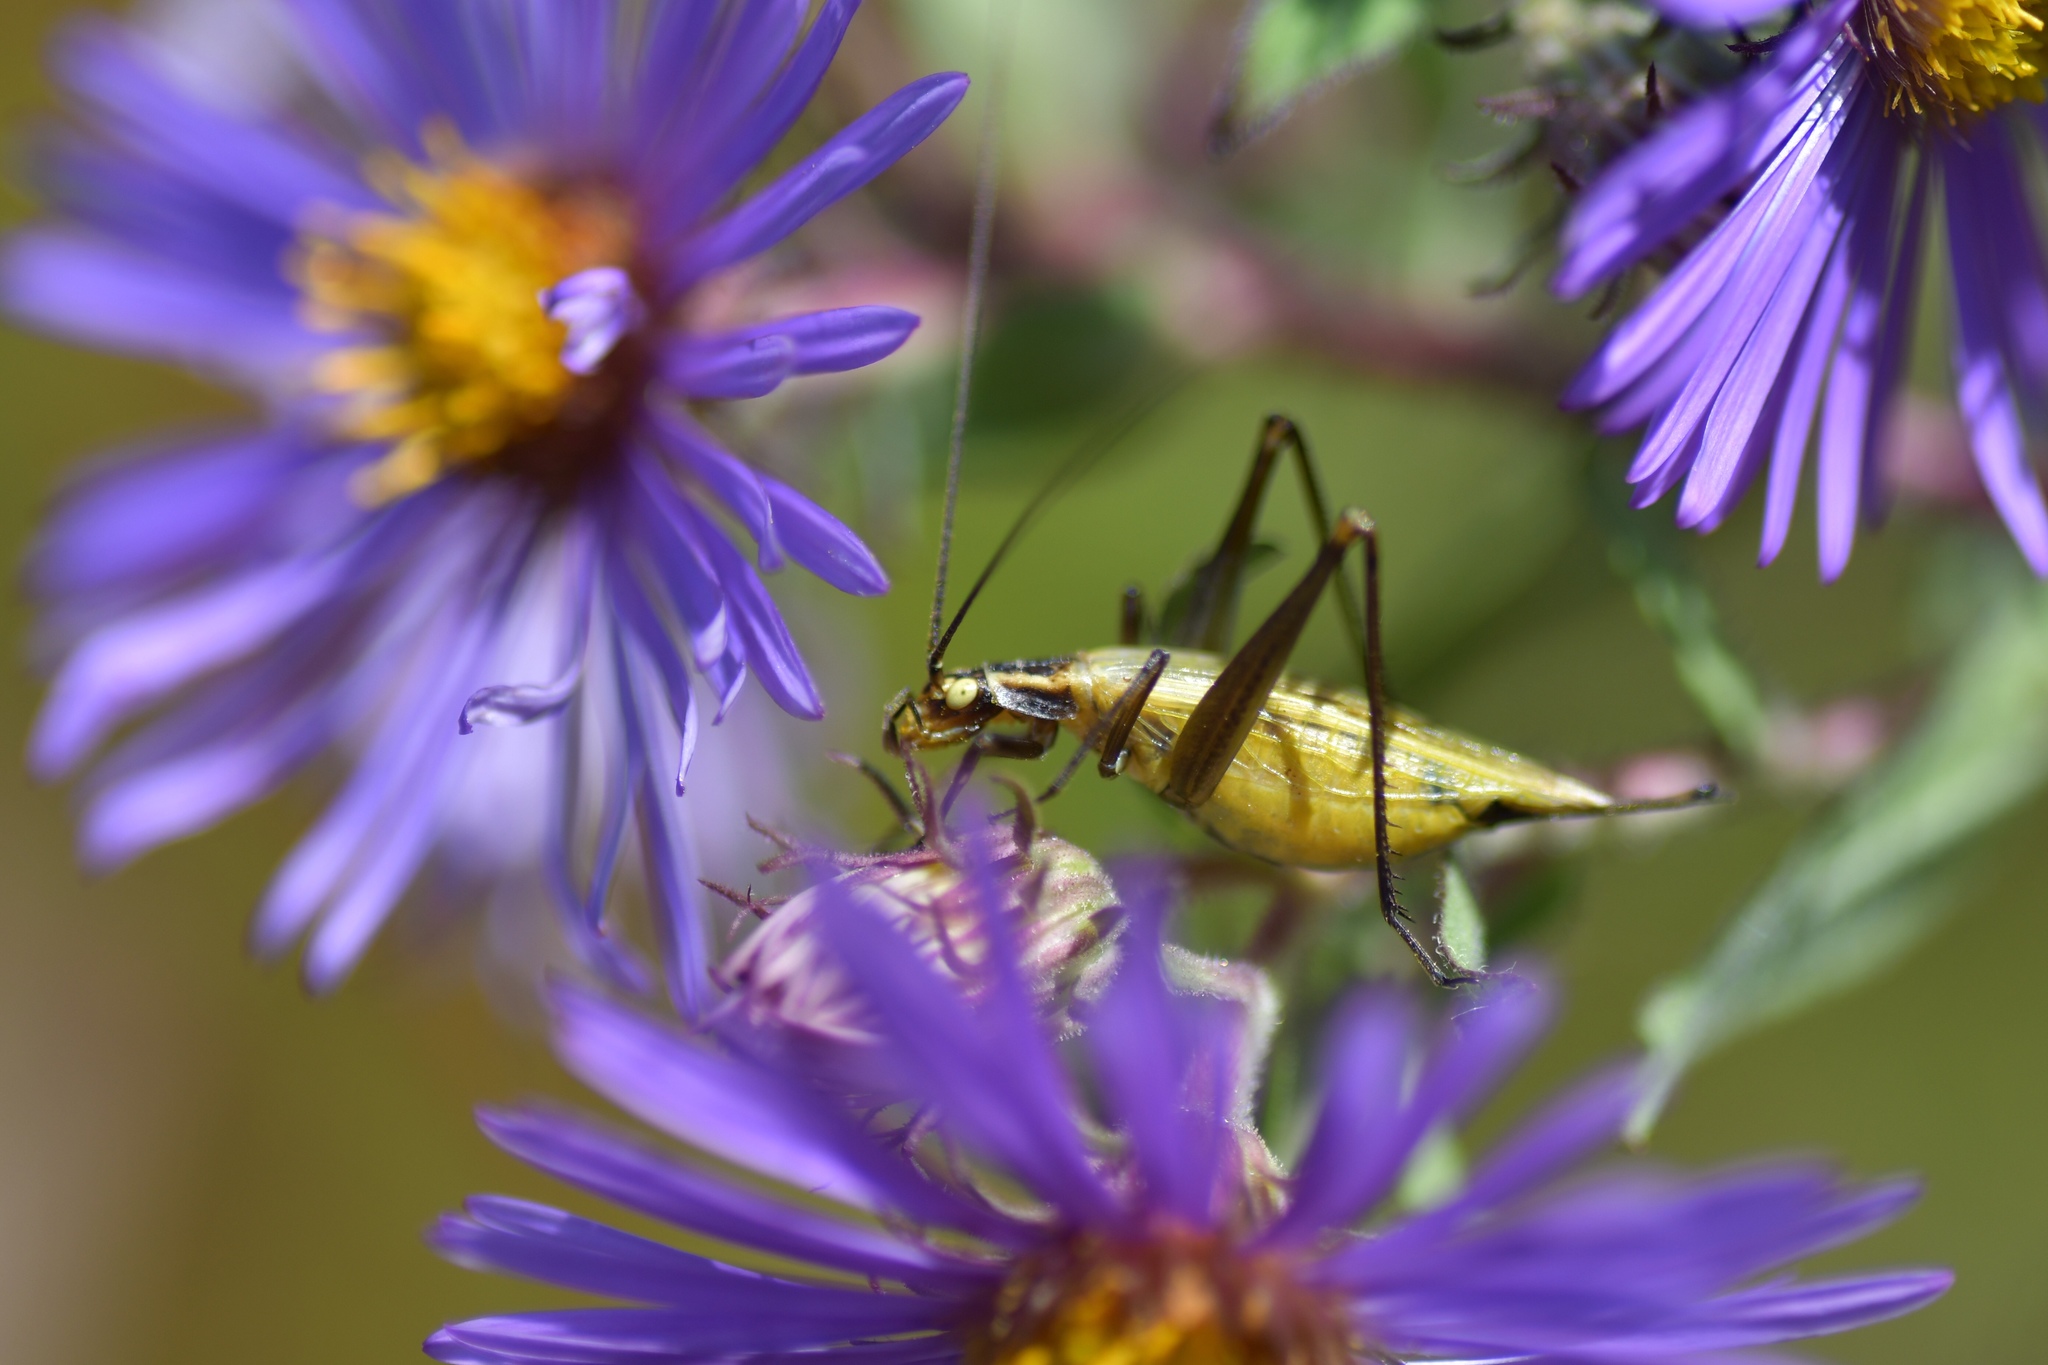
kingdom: Animalia
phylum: Arthropoda
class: Insecta
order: Orthoptera
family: Gryllidae
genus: Oecanthus
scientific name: Oecanthus nigricornis
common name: Black-horned tree cricket
